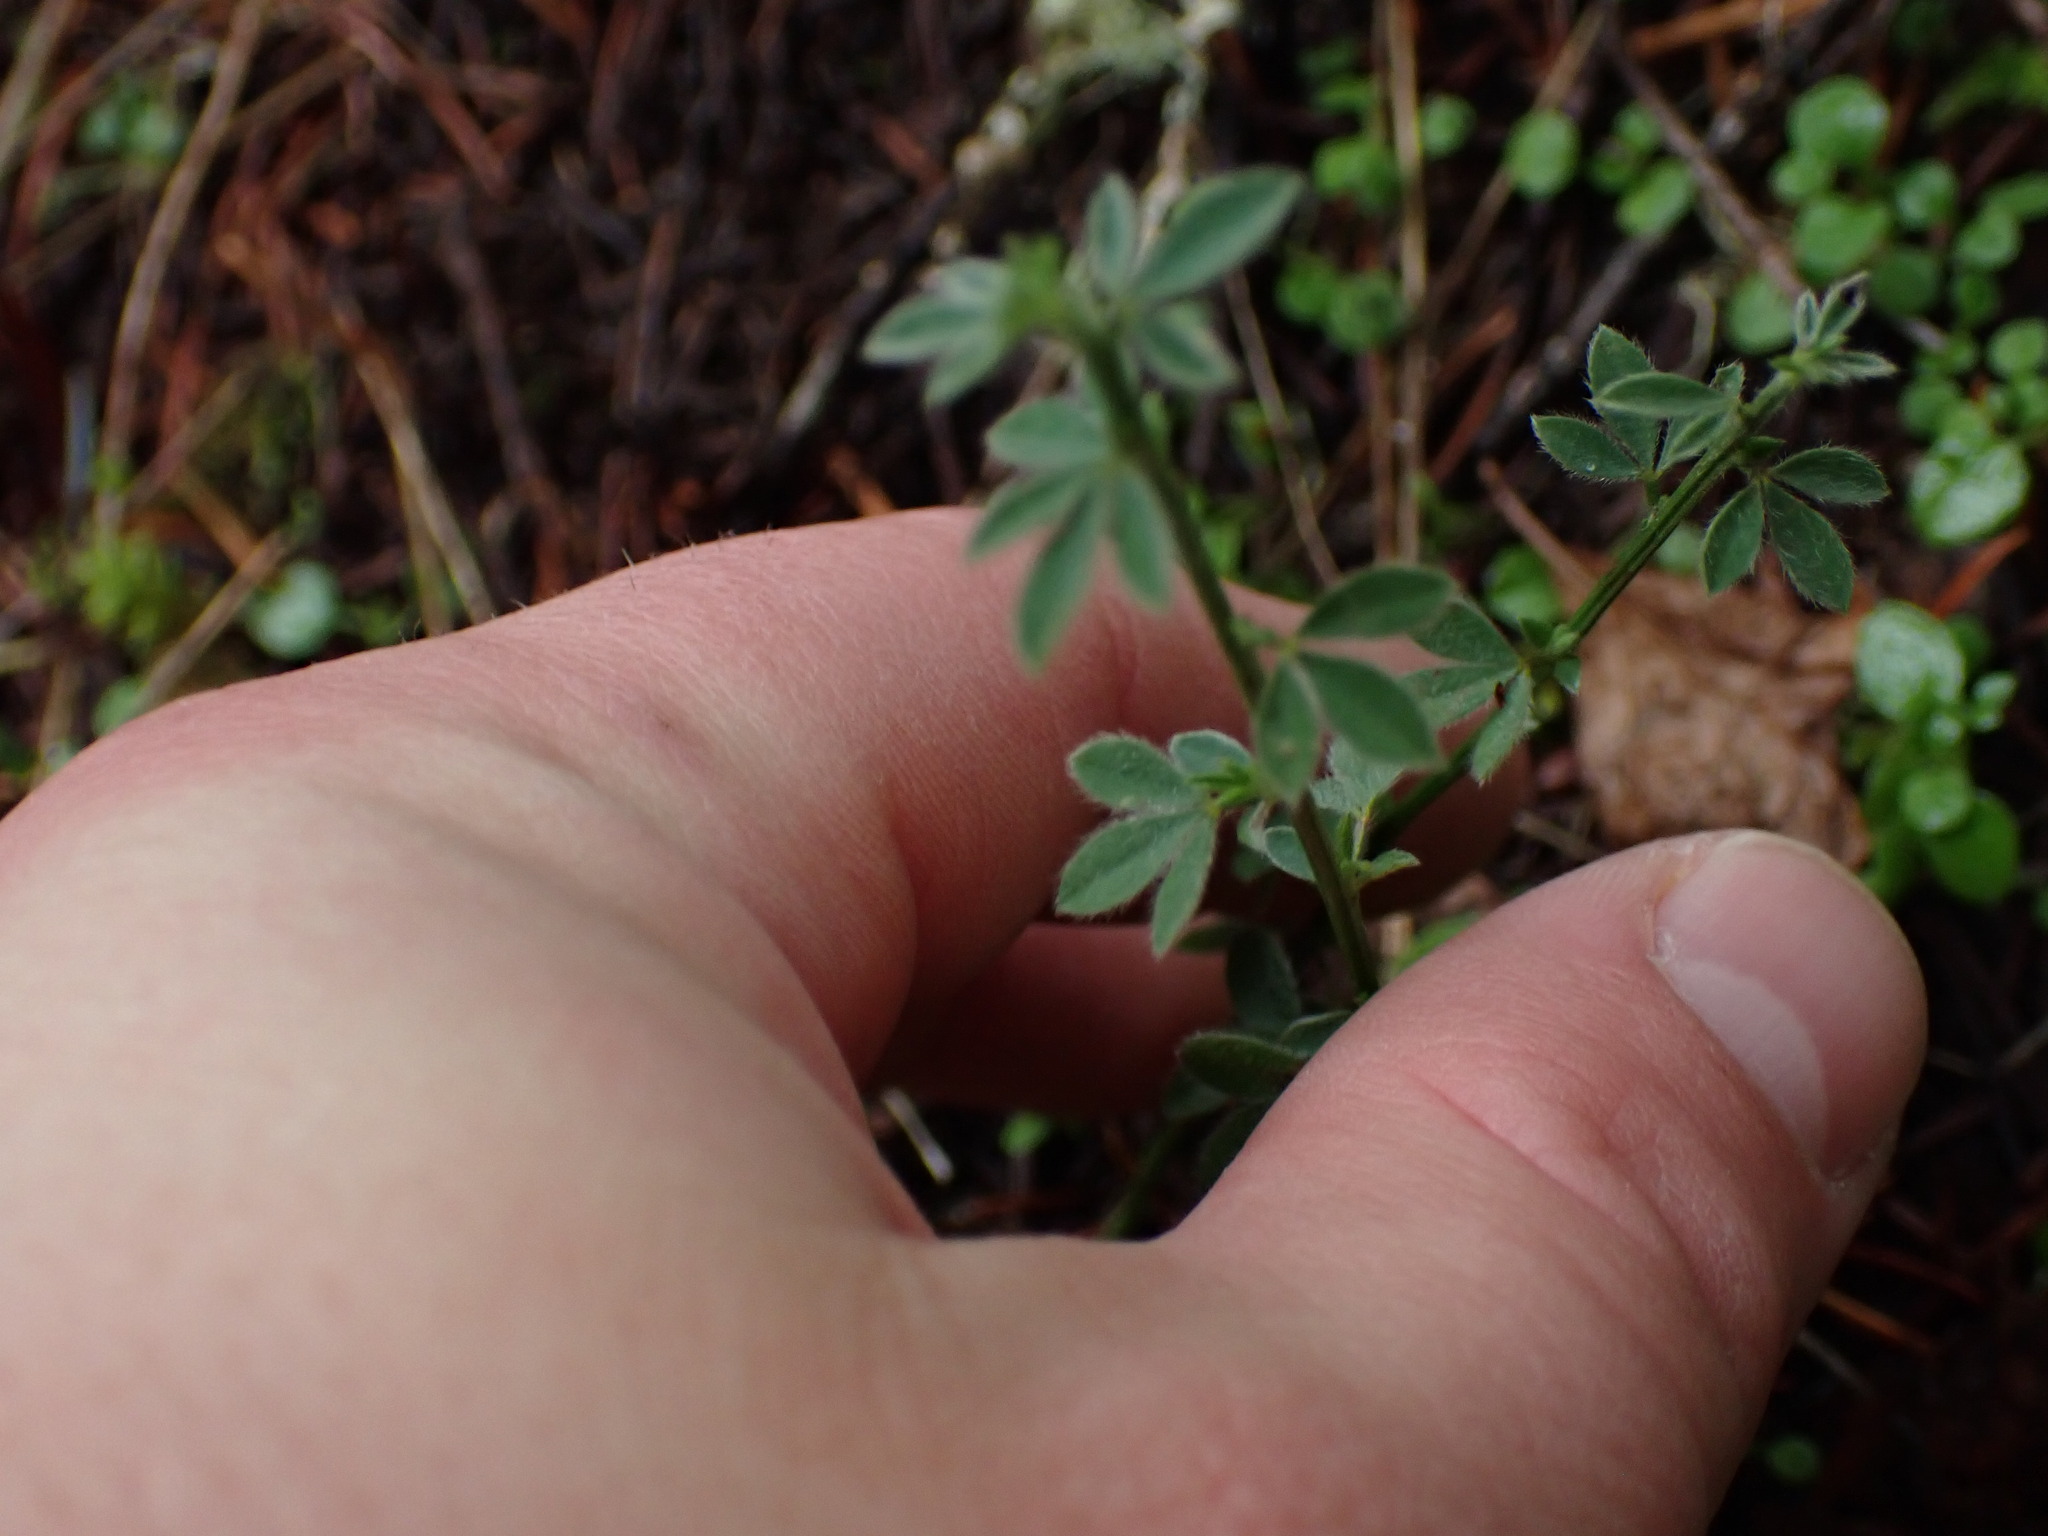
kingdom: Plantae
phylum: Tracheophyta
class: Magnoliopsida
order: Fabales
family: Fabaceae
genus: Cytisus
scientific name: Cytisus scoparius
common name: Scotch broom
